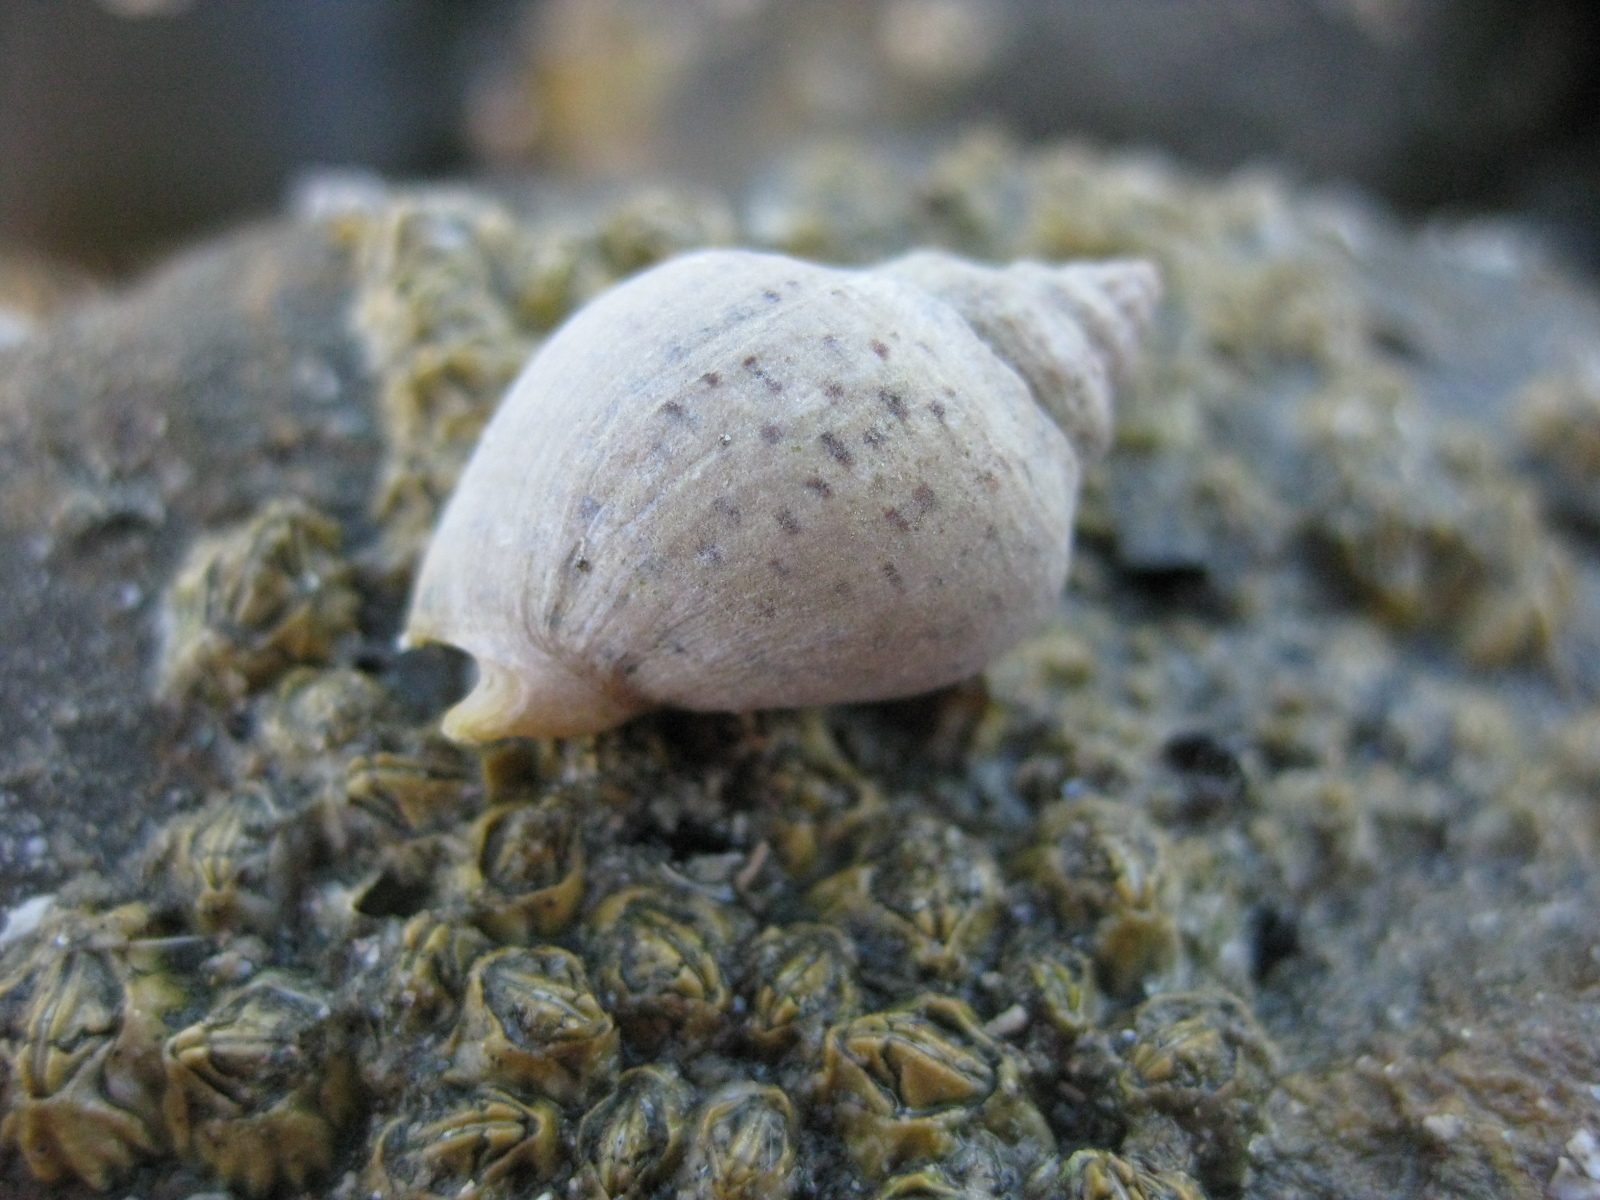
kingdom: Animalia
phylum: Mollusca
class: Gastropoda
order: Neogastropoda
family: Cominellidae
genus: Cominella
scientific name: Cominella adspersa
